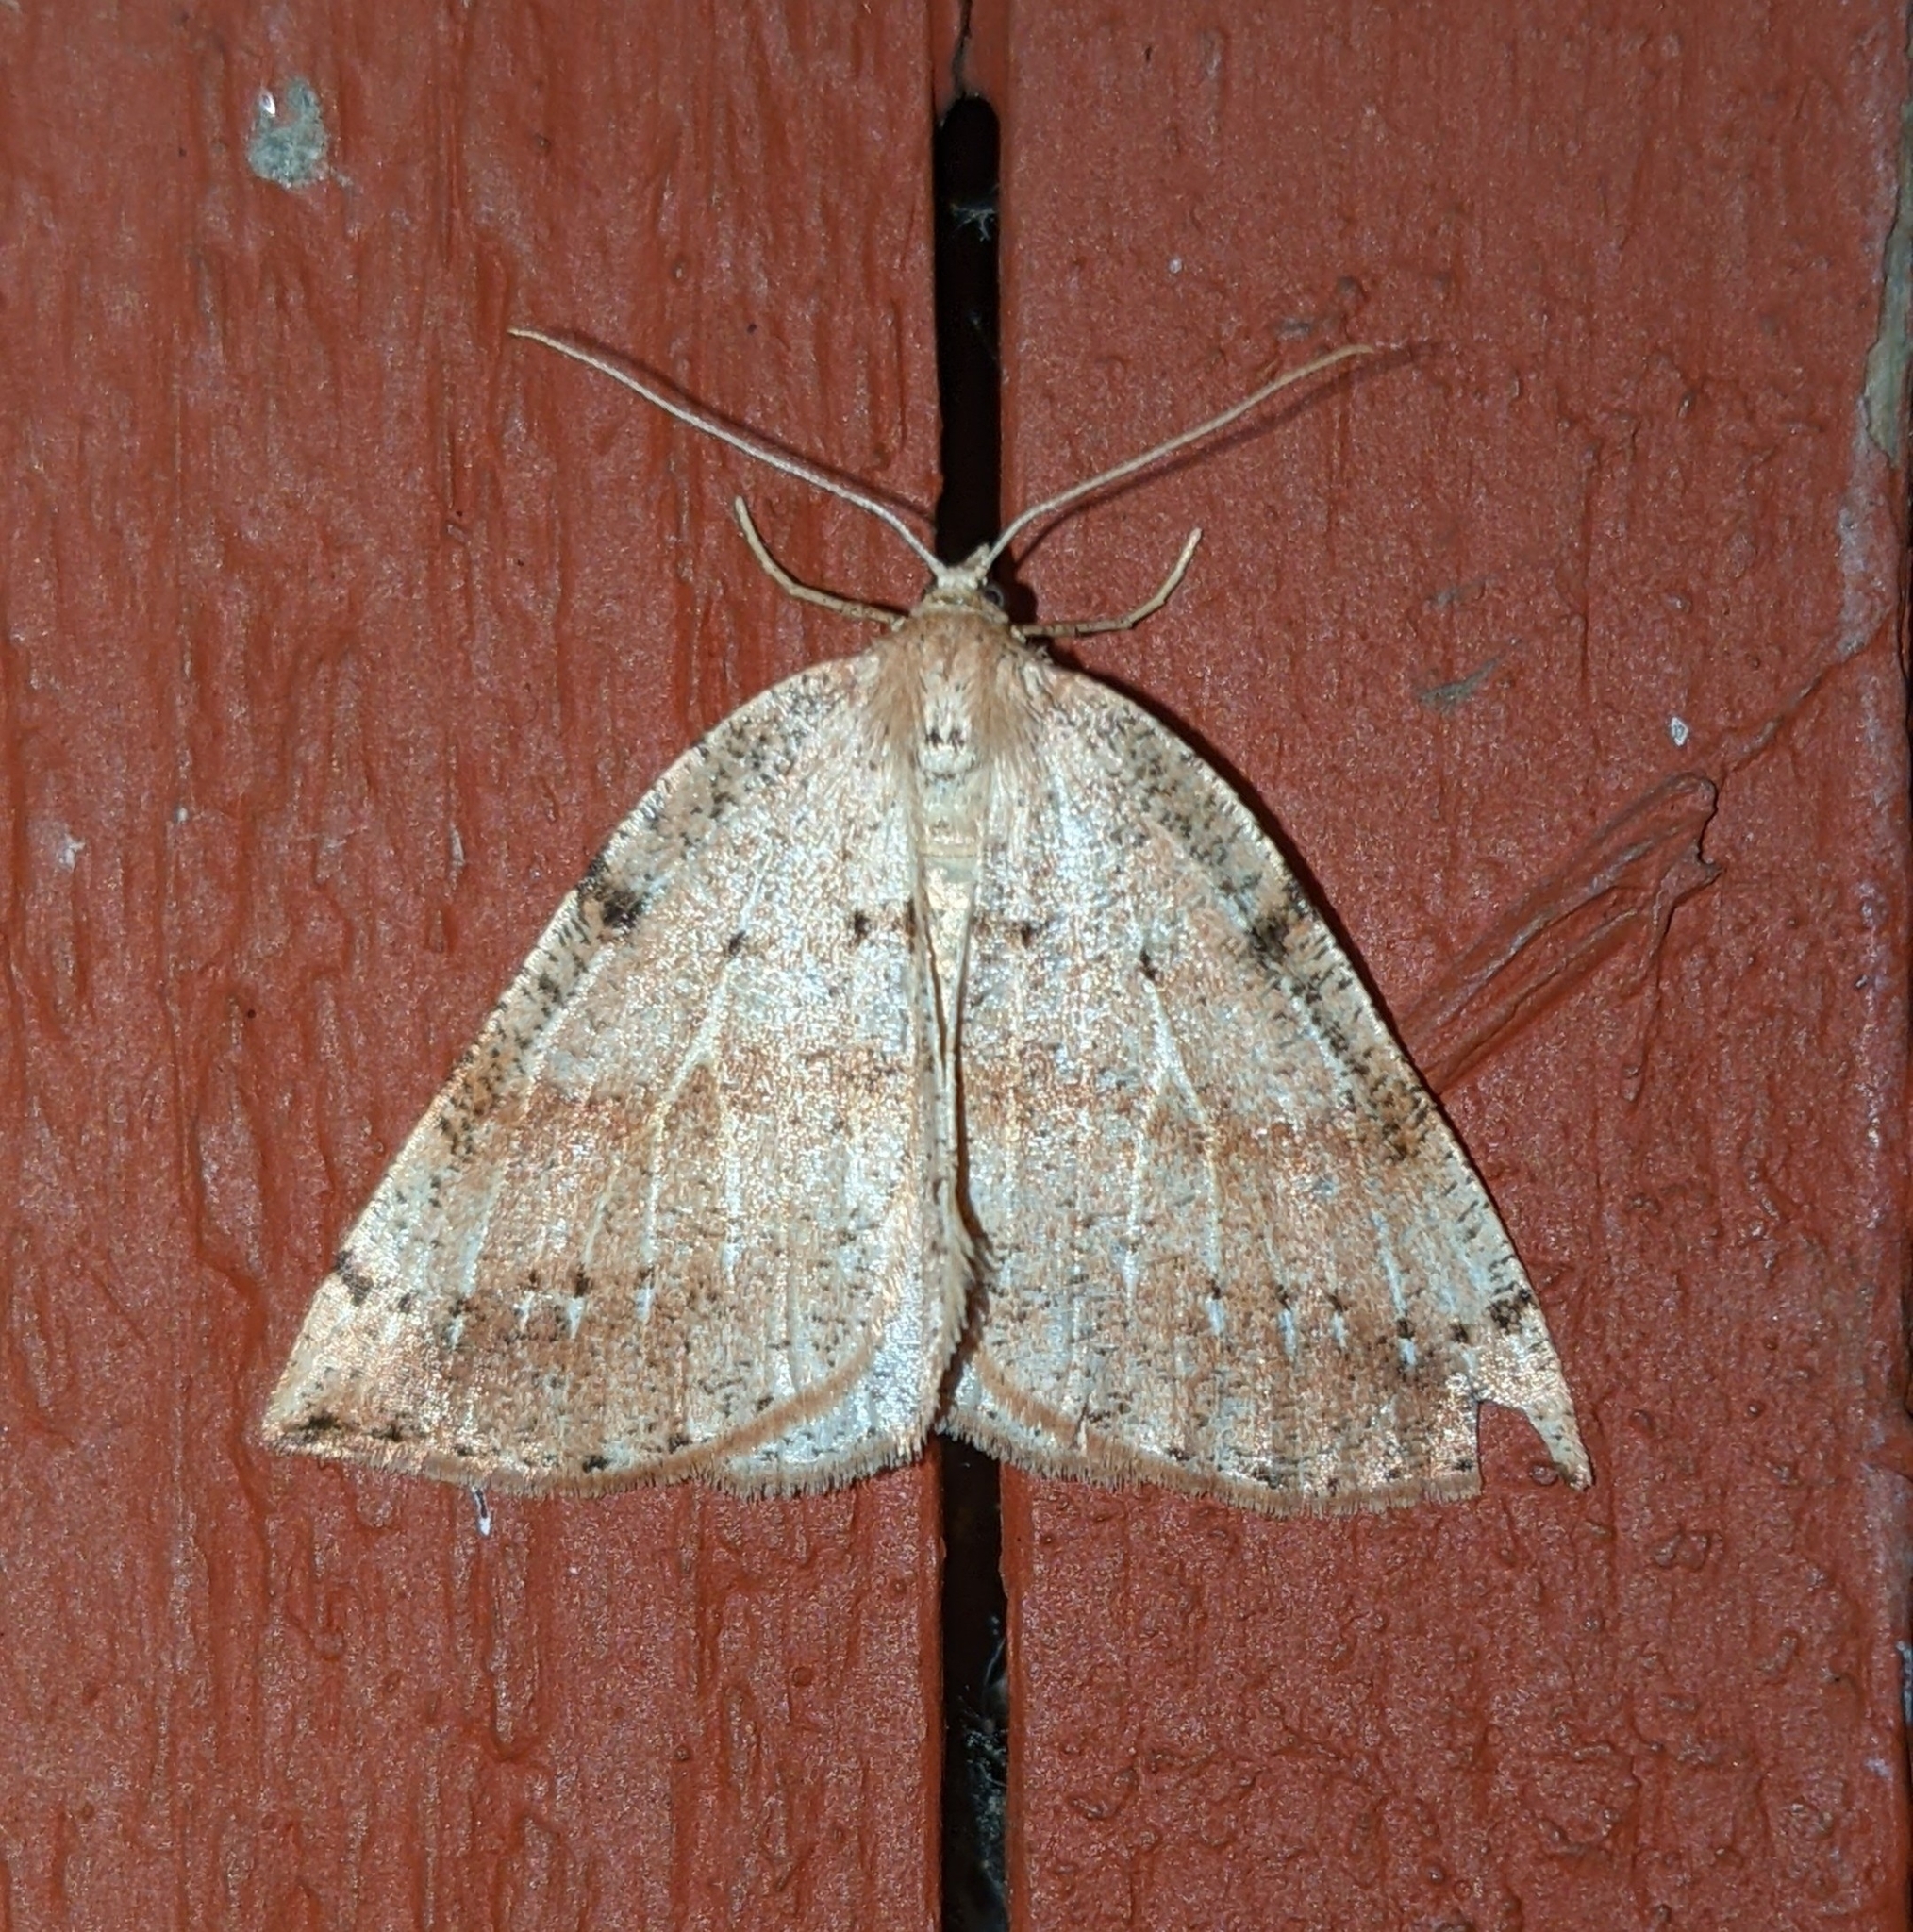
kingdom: Animalia
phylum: Arthropoda
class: Insecta
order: Lepidoptera
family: Geometridae
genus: Thallophaga
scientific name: Thallophaga hyperborea
